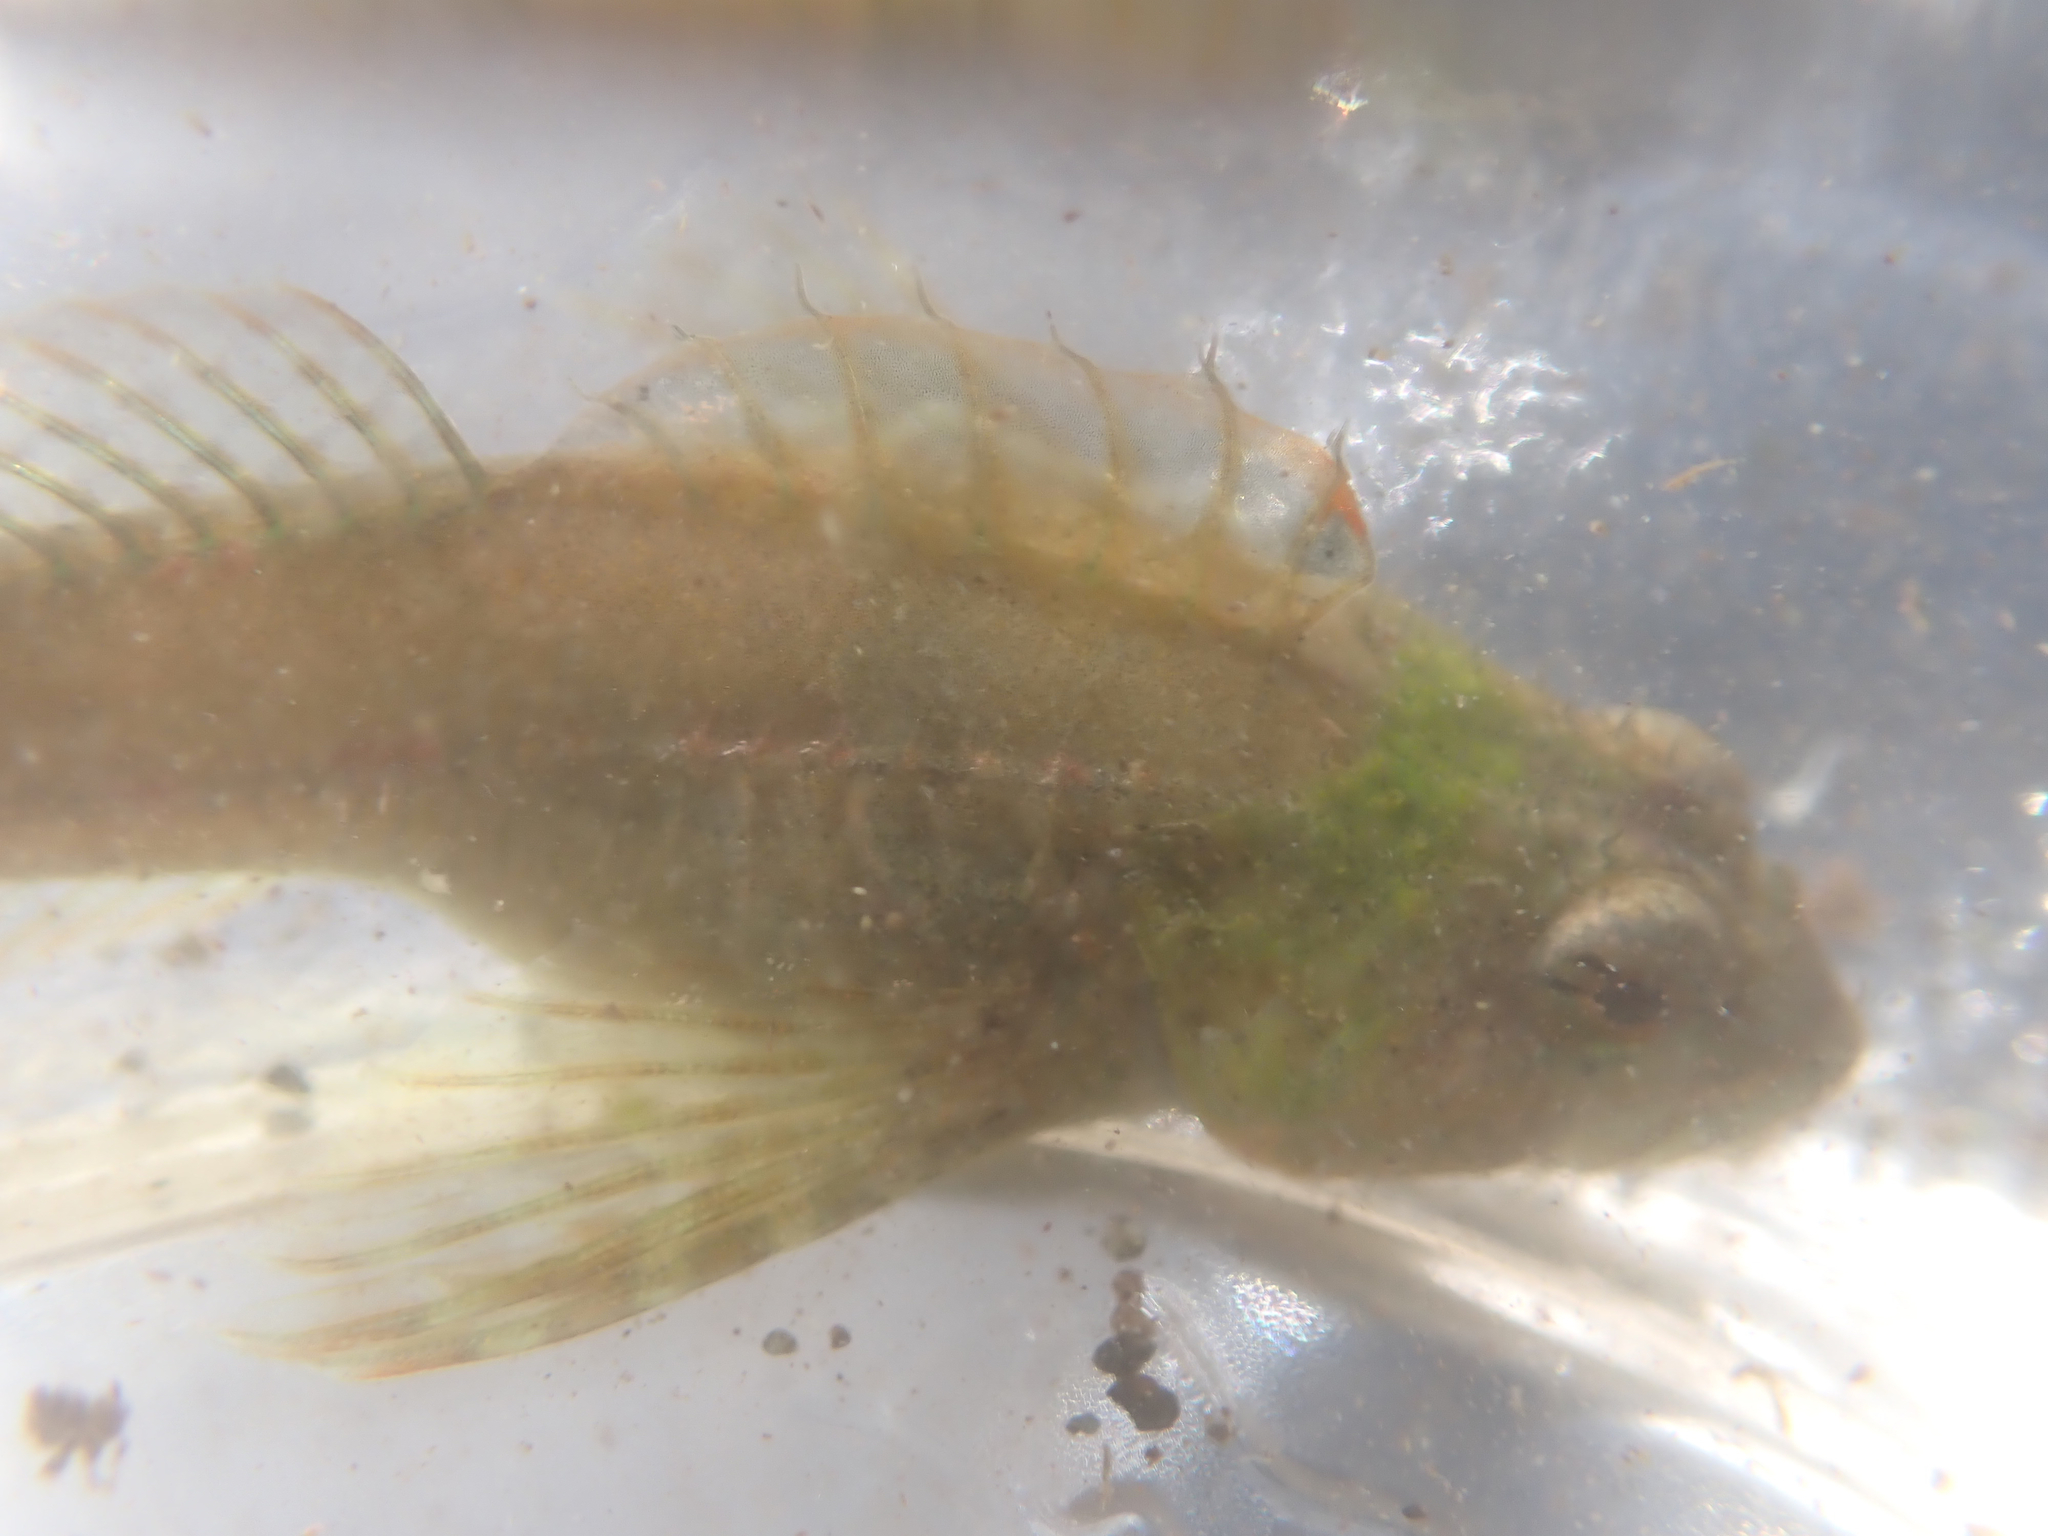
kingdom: Animalia
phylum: Chordata
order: Scorpaeniformes
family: Cottidae
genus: Oligocottus
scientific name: Oligocottus maculosus
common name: Tidepool sculpin
